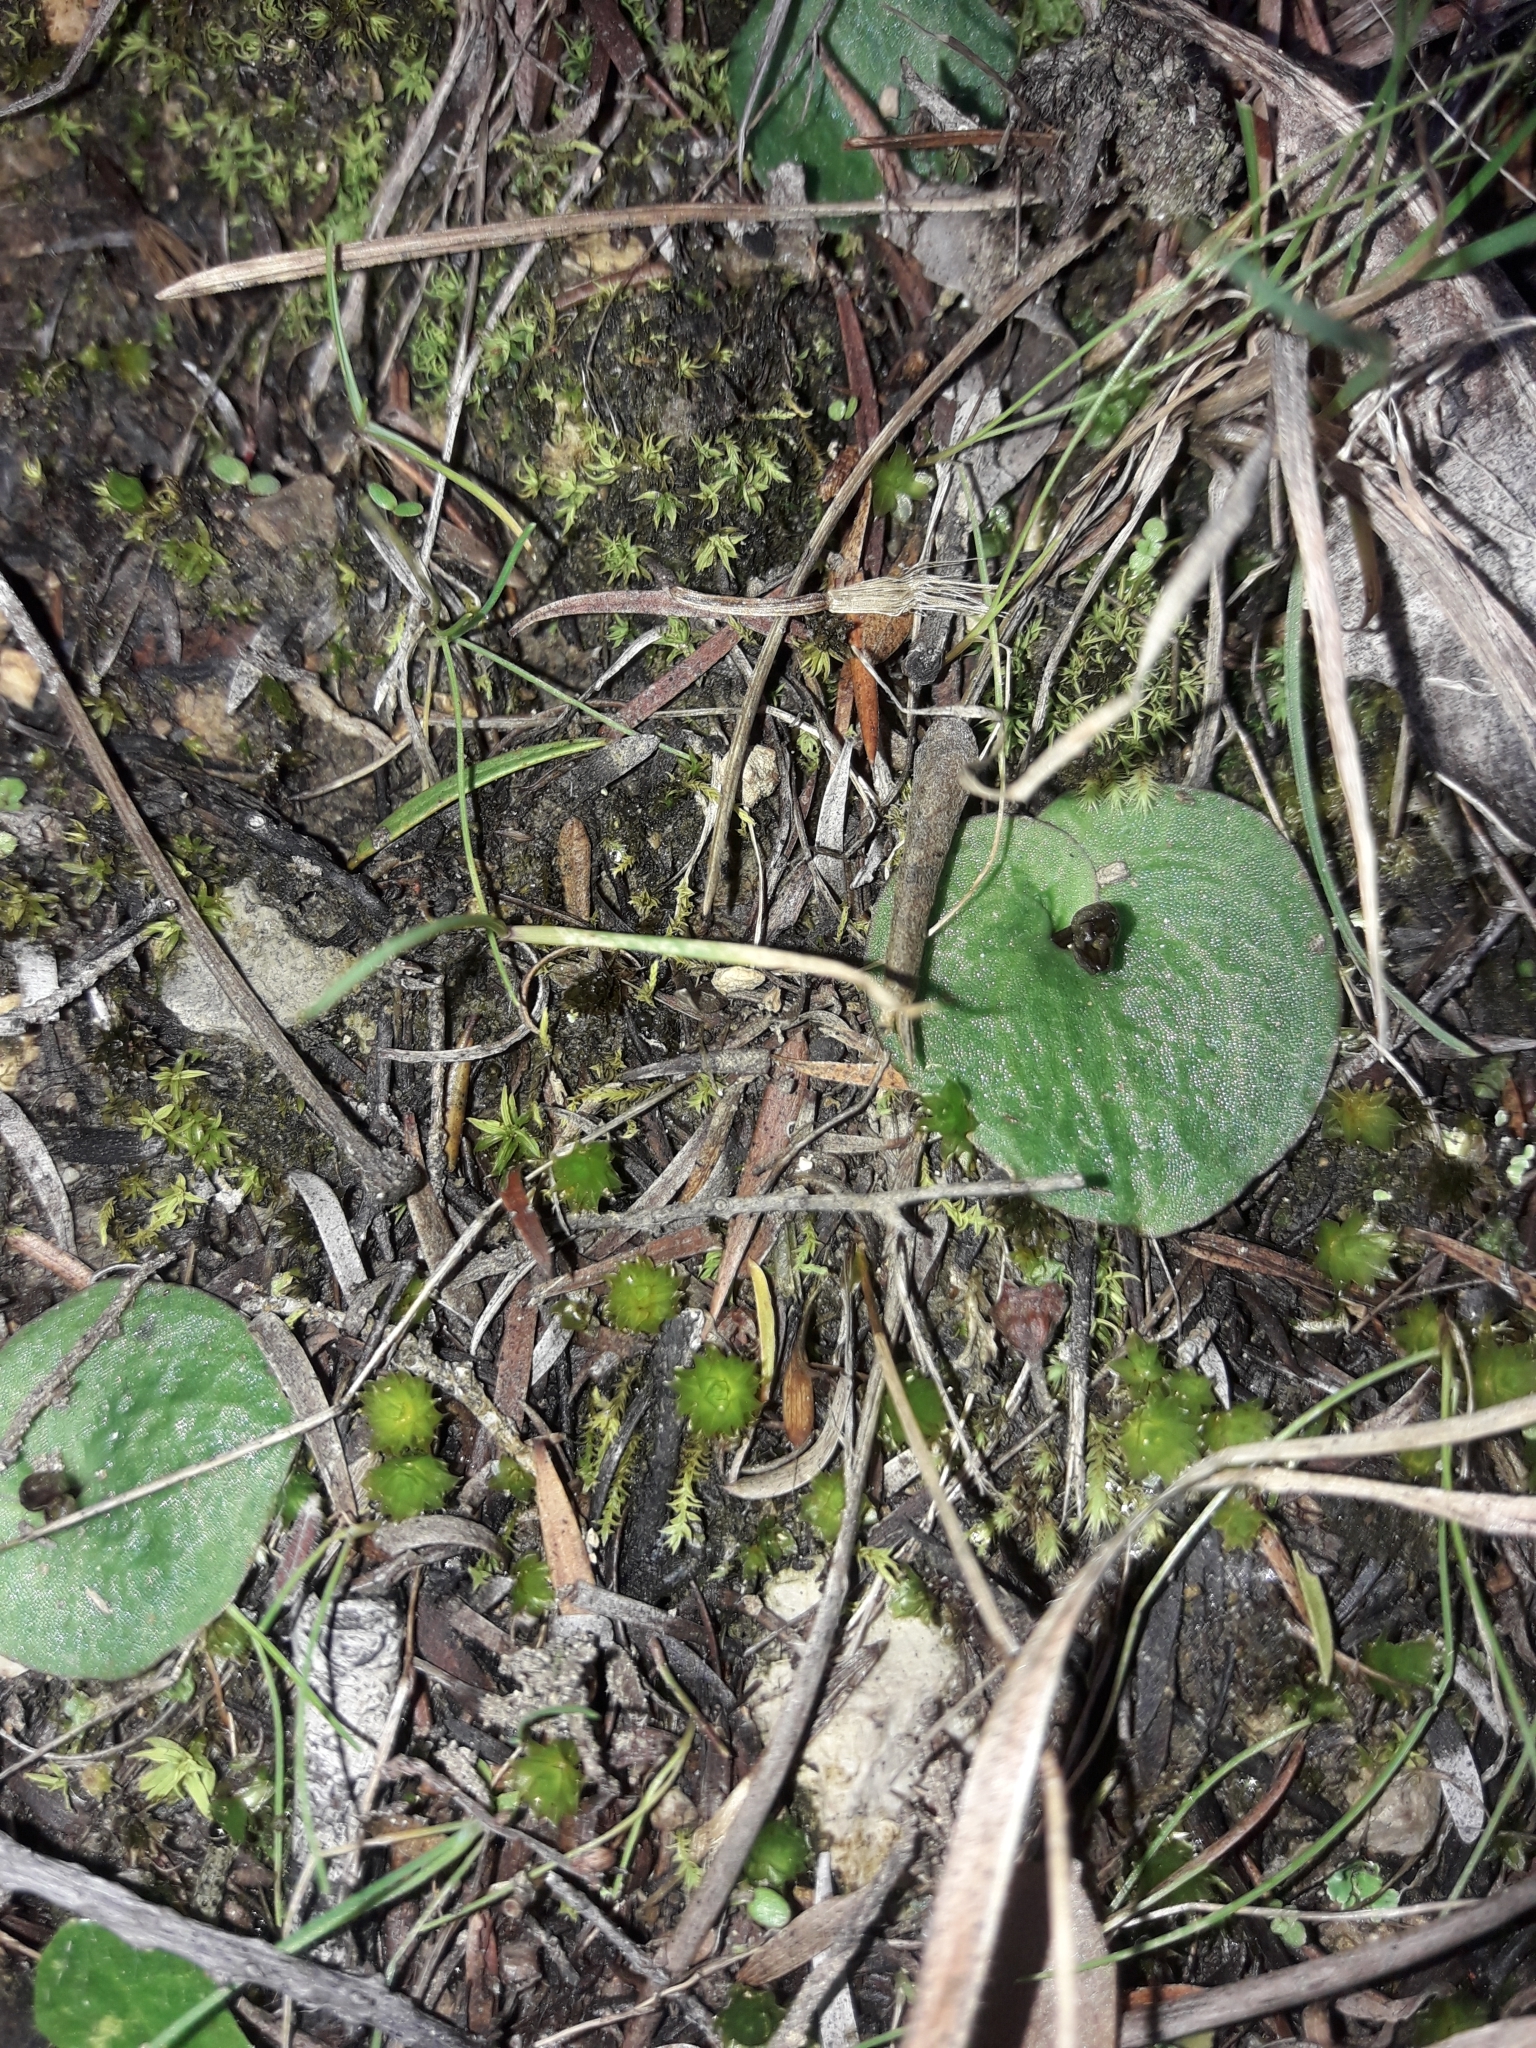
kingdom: Plantae
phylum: Tracheophyta
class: Liliopsida
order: Asparagales
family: Orchidaceae
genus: Cyrtostylis
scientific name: Cyrtostylis rotundifolia
